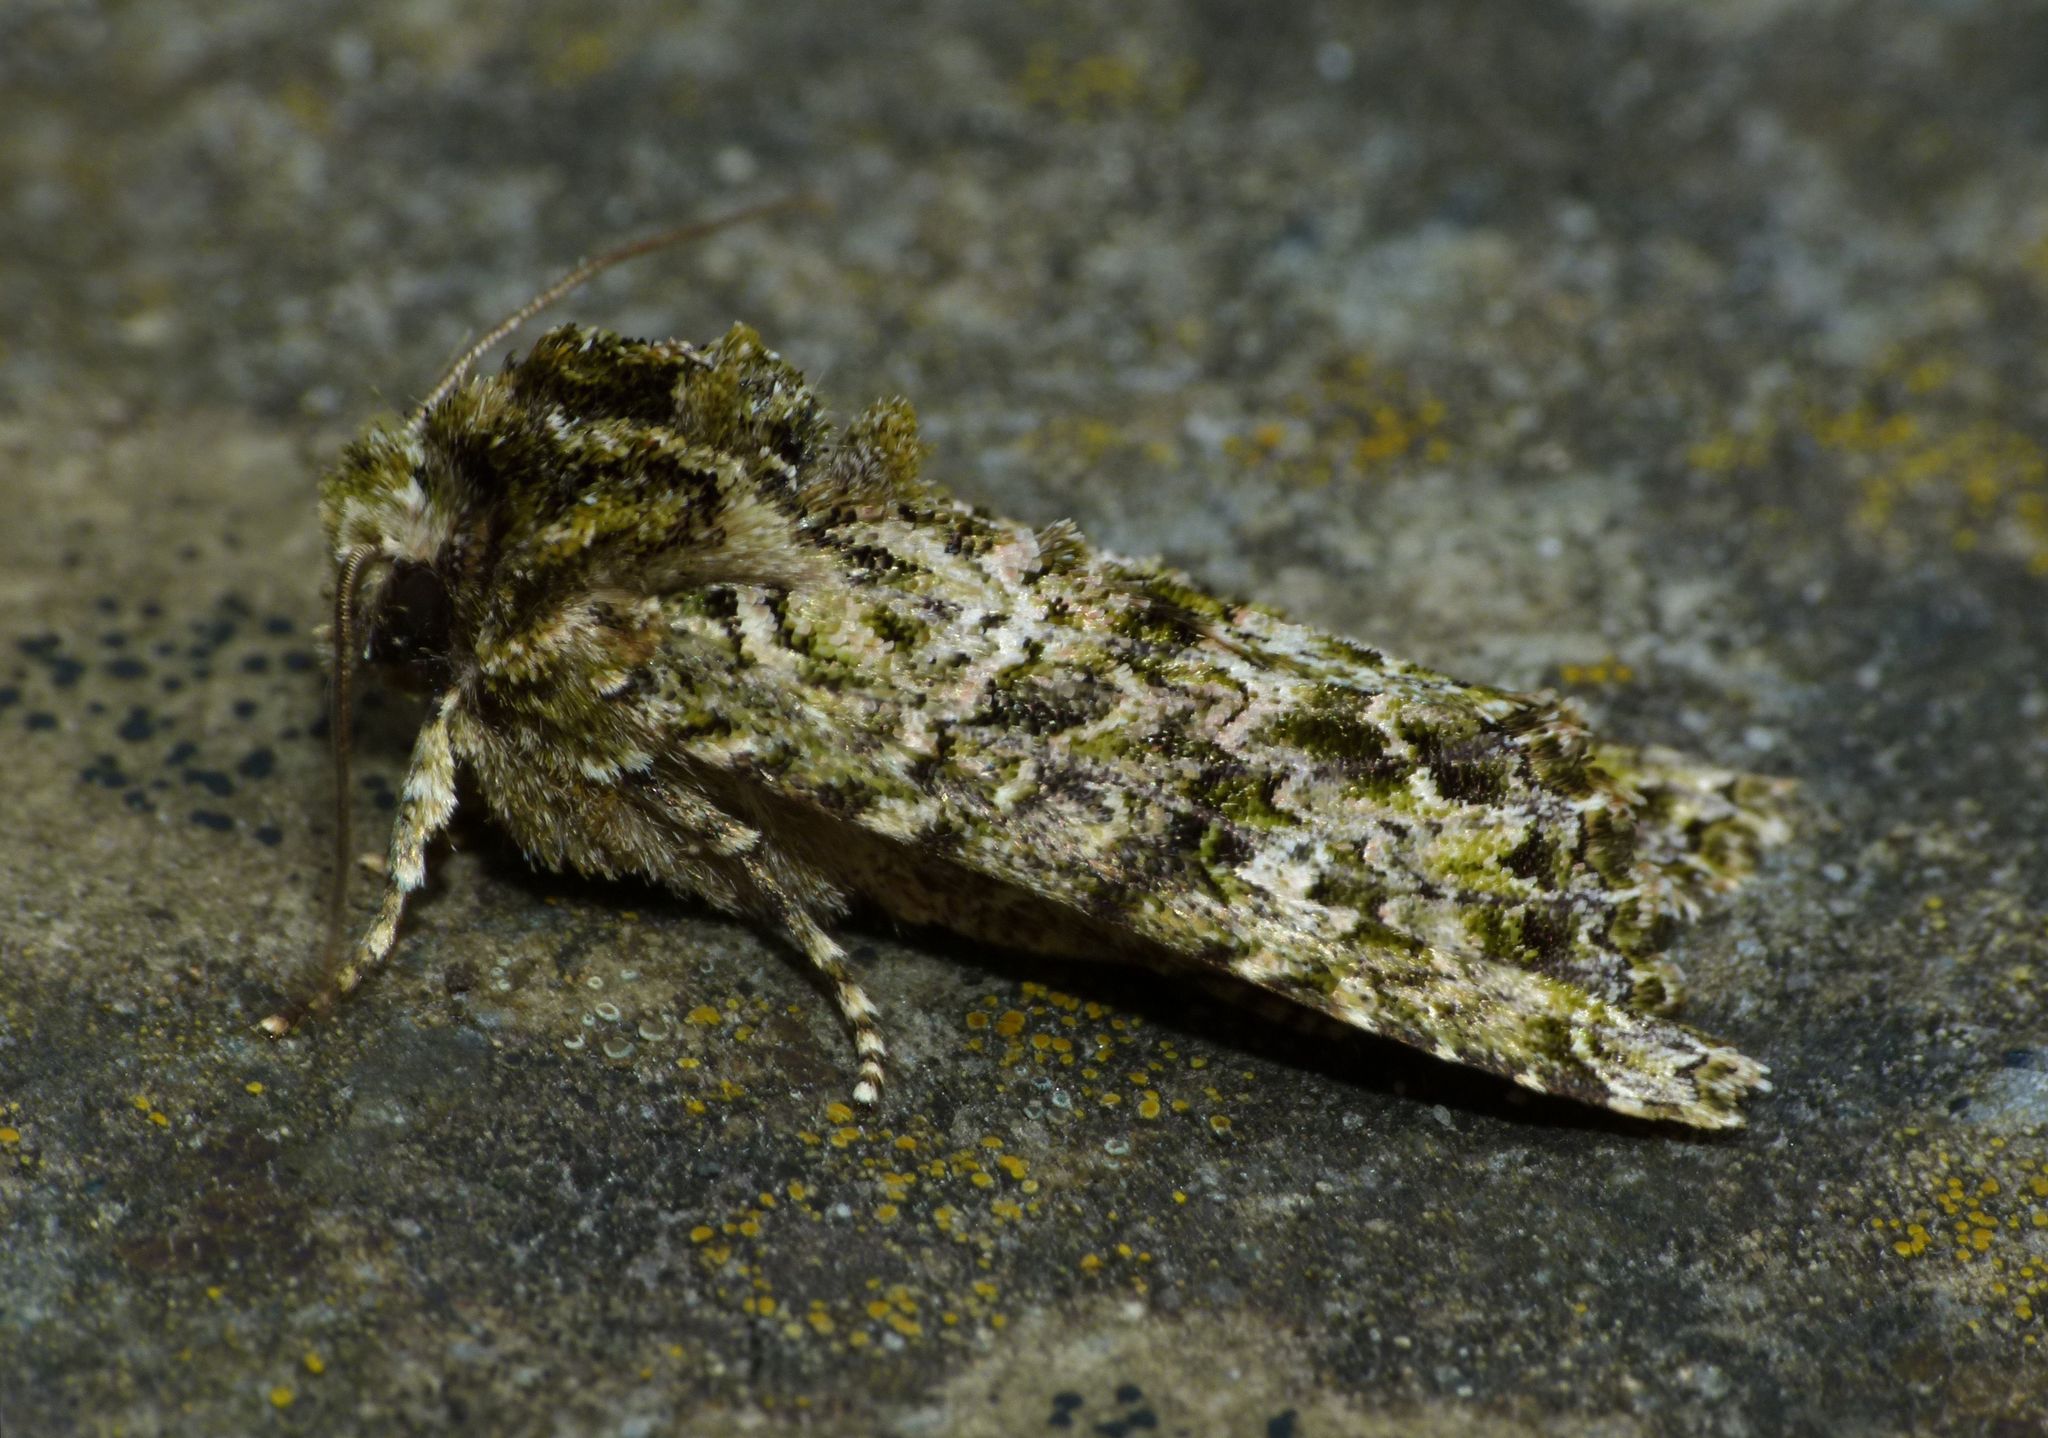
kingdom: Animalia
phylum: Arthropoda
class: Insecta
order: Lepidoptera
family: Noctuidae
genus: Ichneutica
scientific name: Ichneutica
